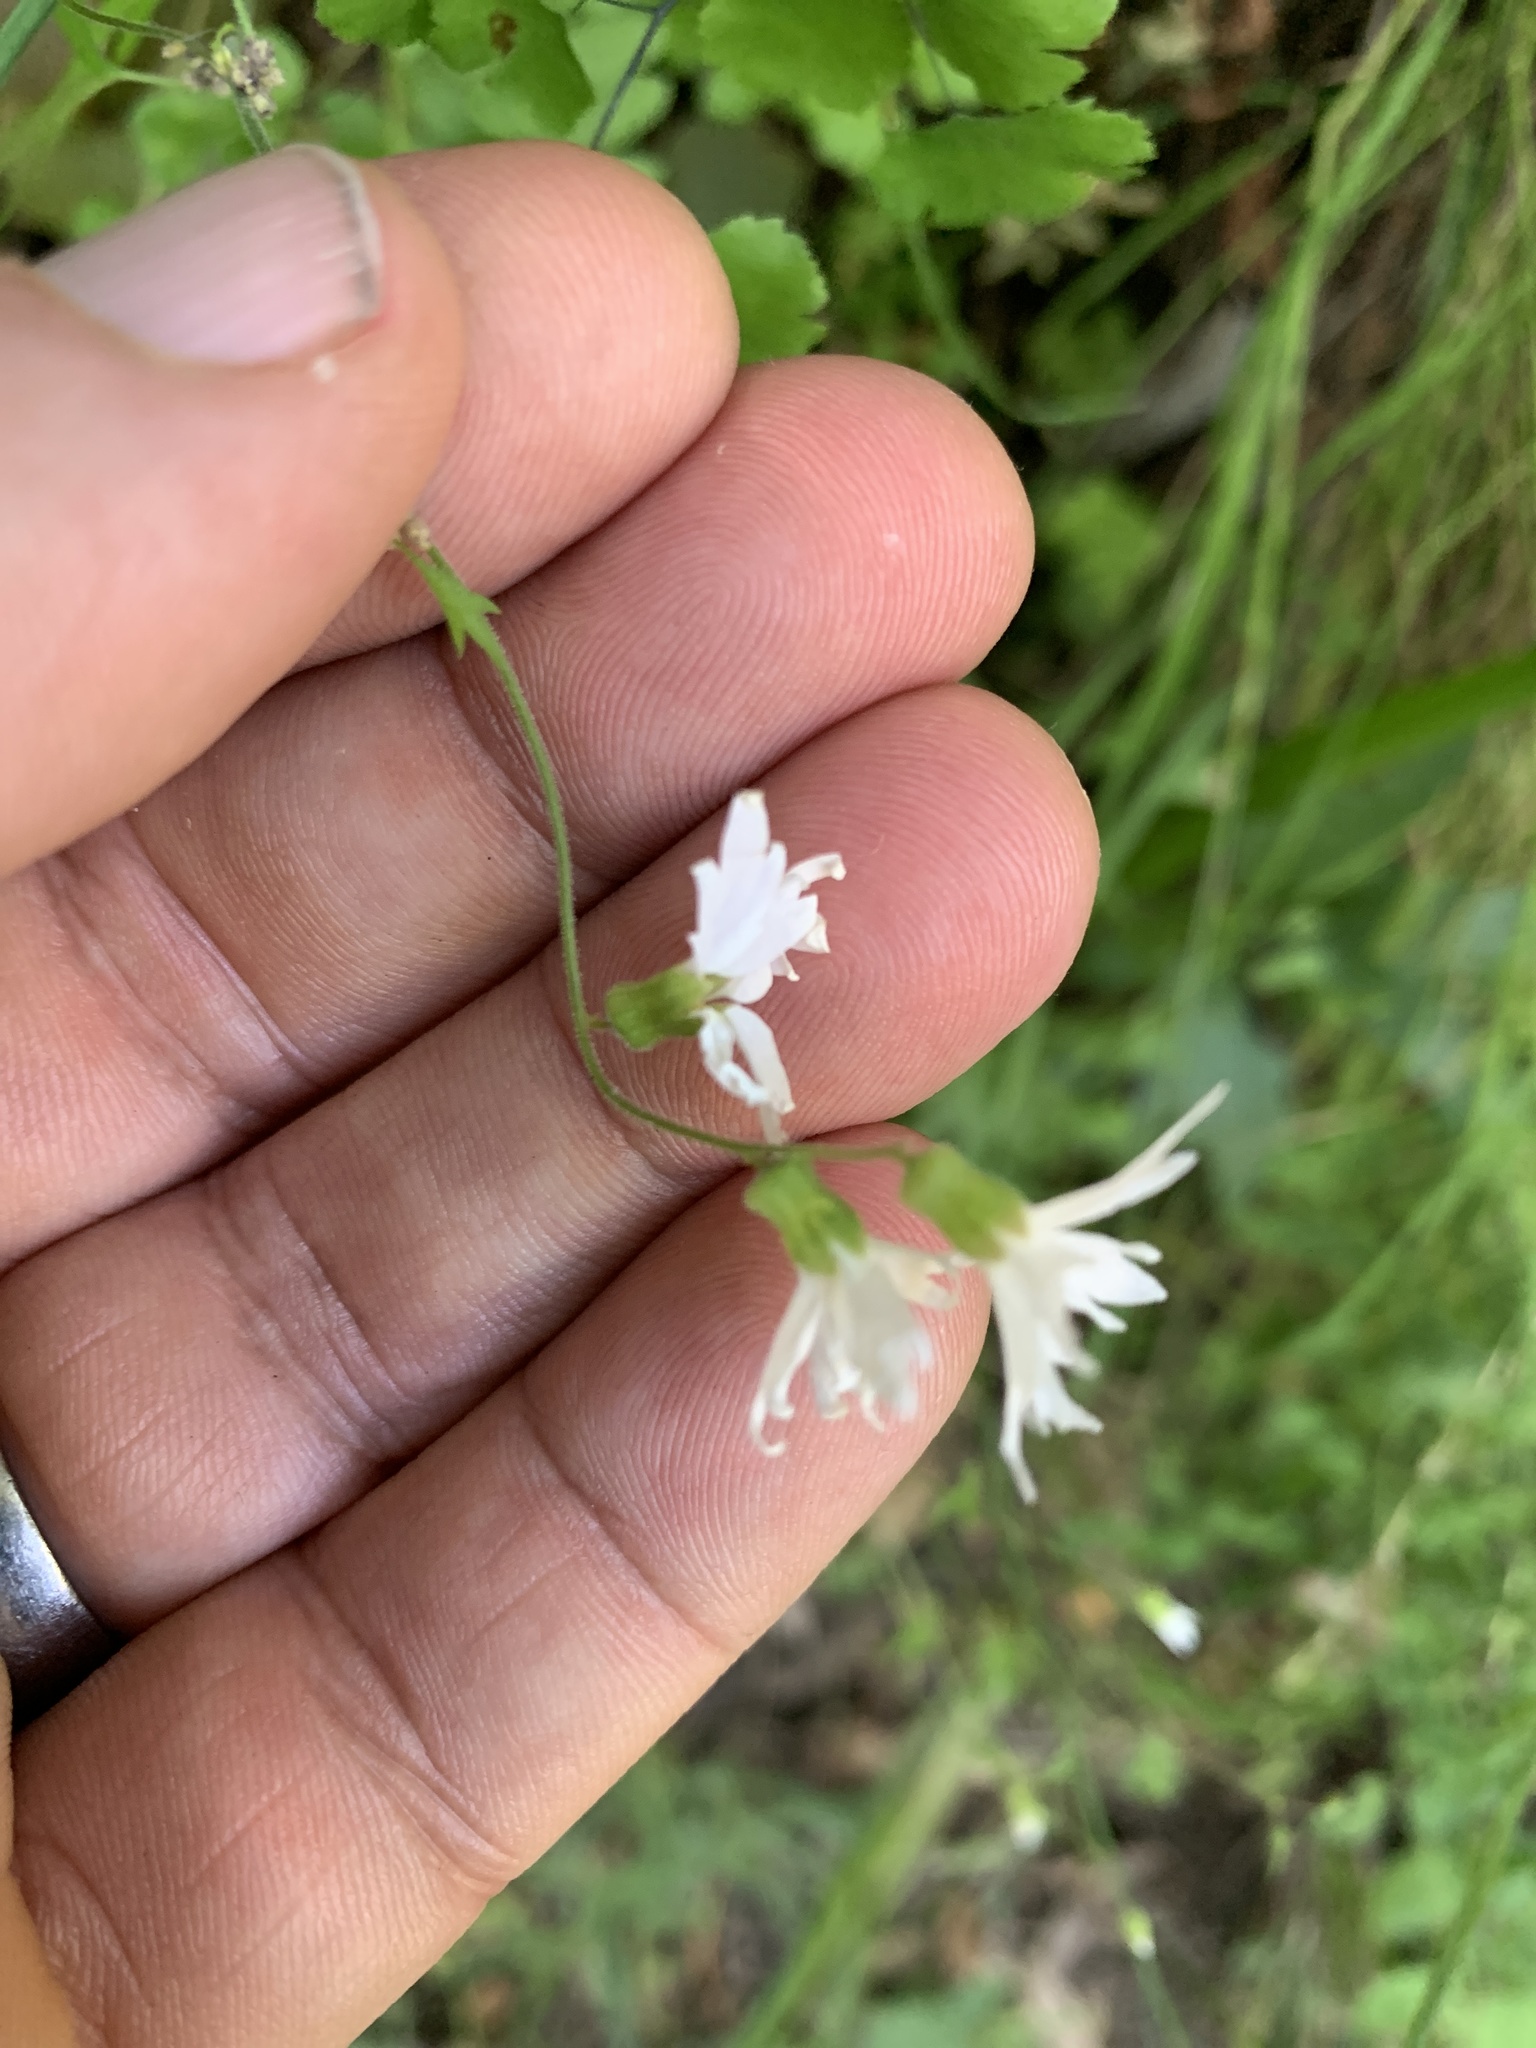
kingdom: Plantae
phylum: Tracheophyta
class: Magnoliopsida
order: Saxifragales
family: Saxifragaceae
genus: Lithophragma
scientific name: Lithophragma heterophyllum
